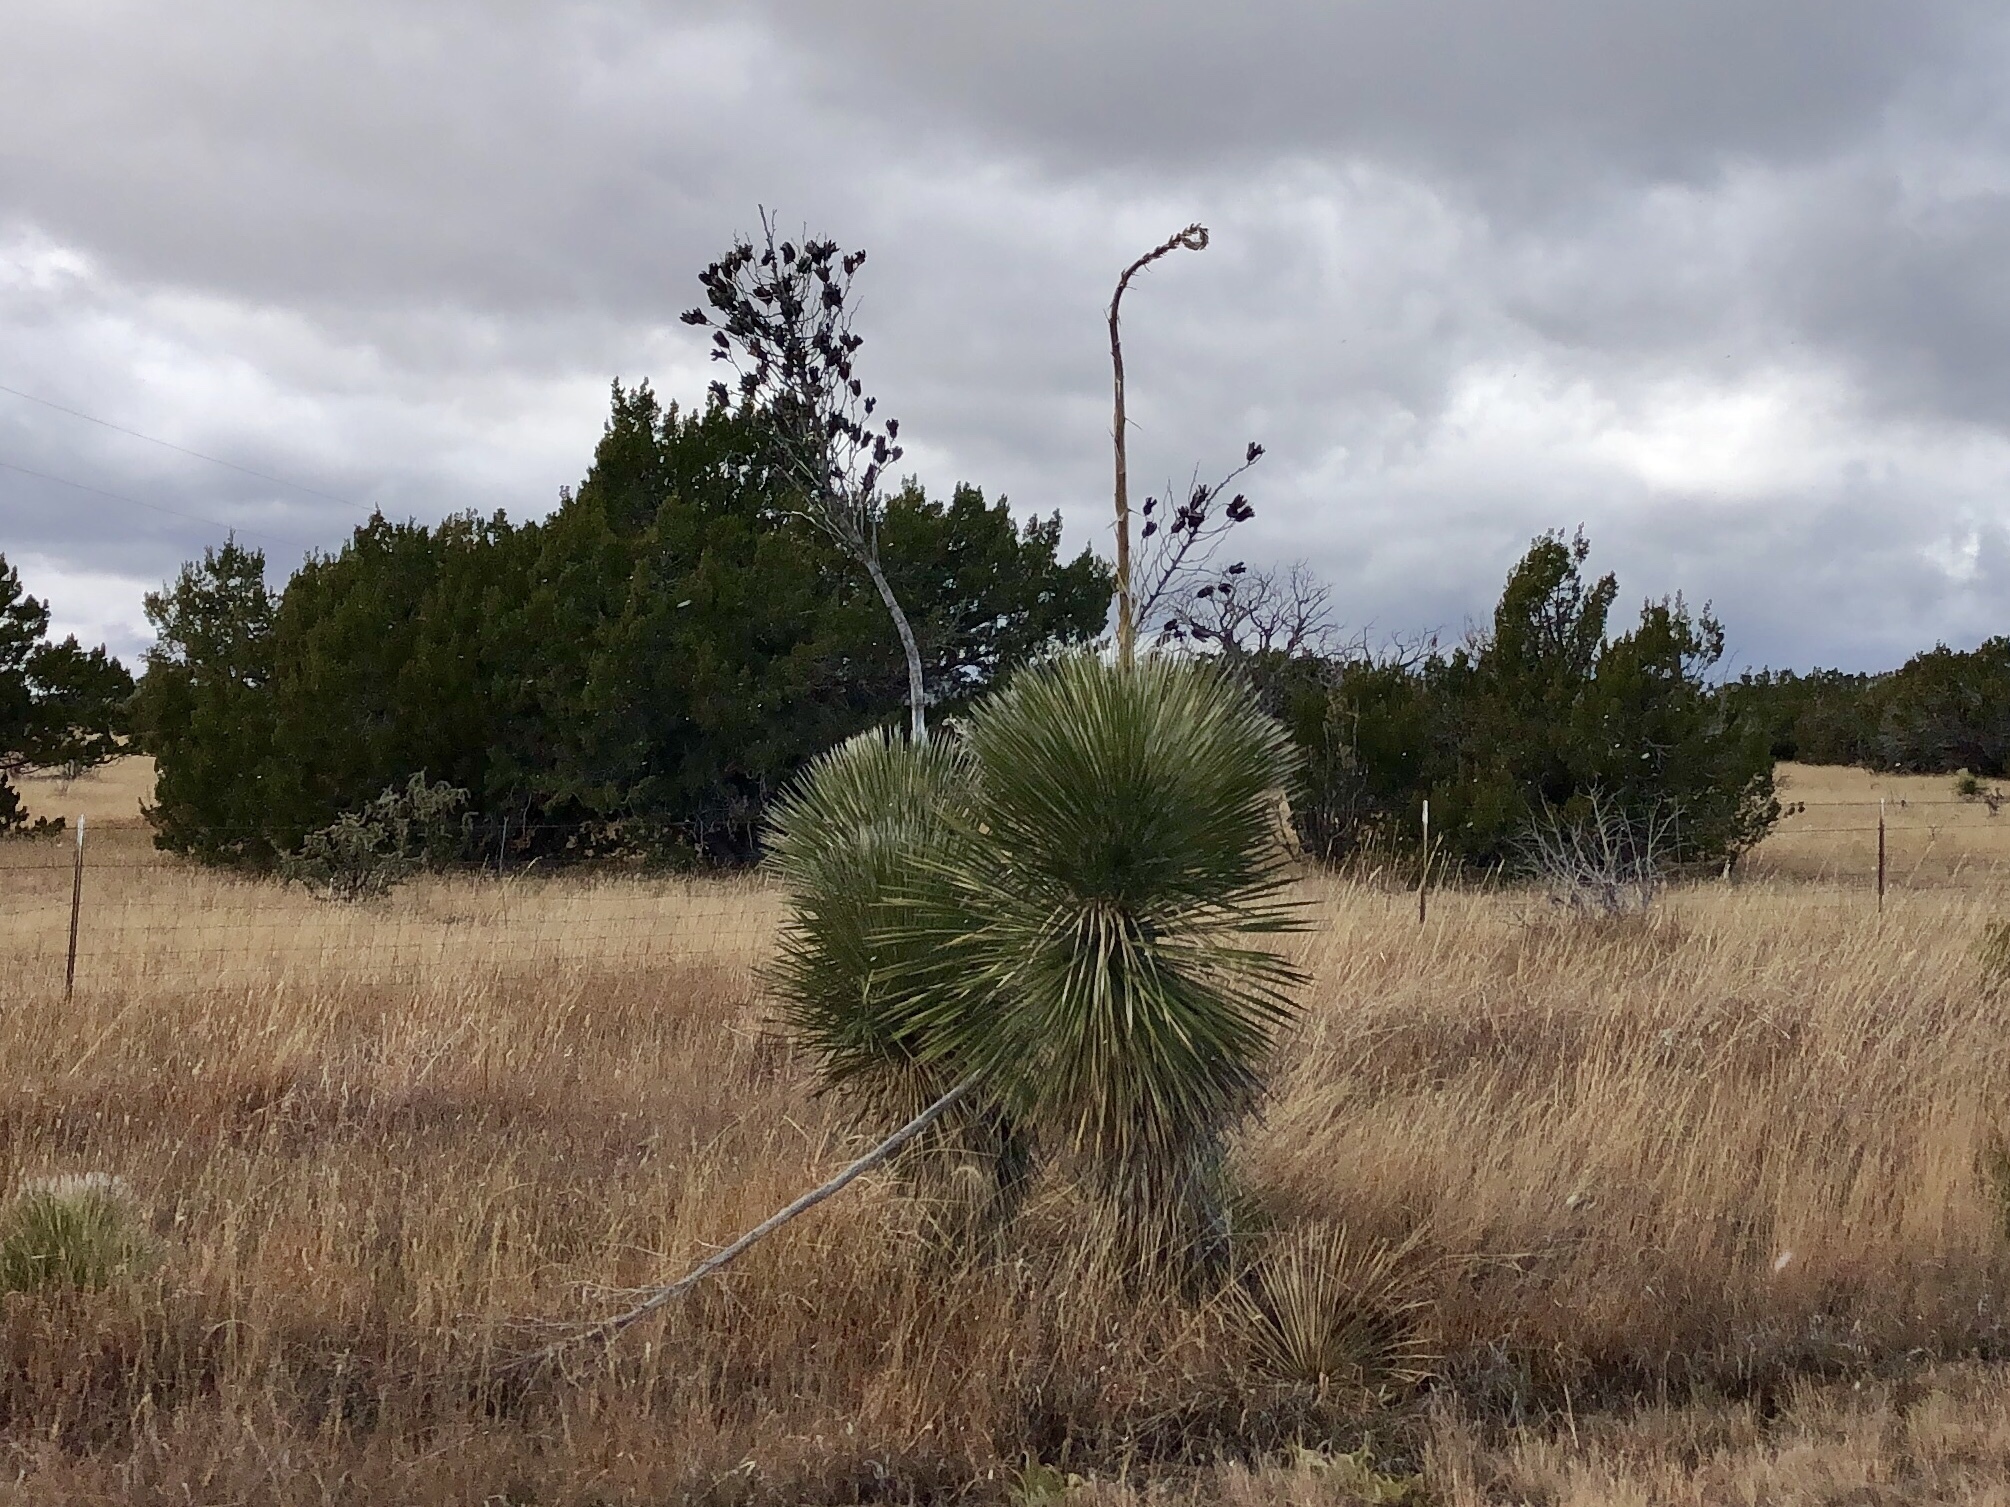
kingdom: Plantae
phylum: Tracheophyta
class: Liliopsida
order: Asparagales
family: Asparagaceae
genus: Yucca
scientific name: Yucca elata
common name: Palmella
